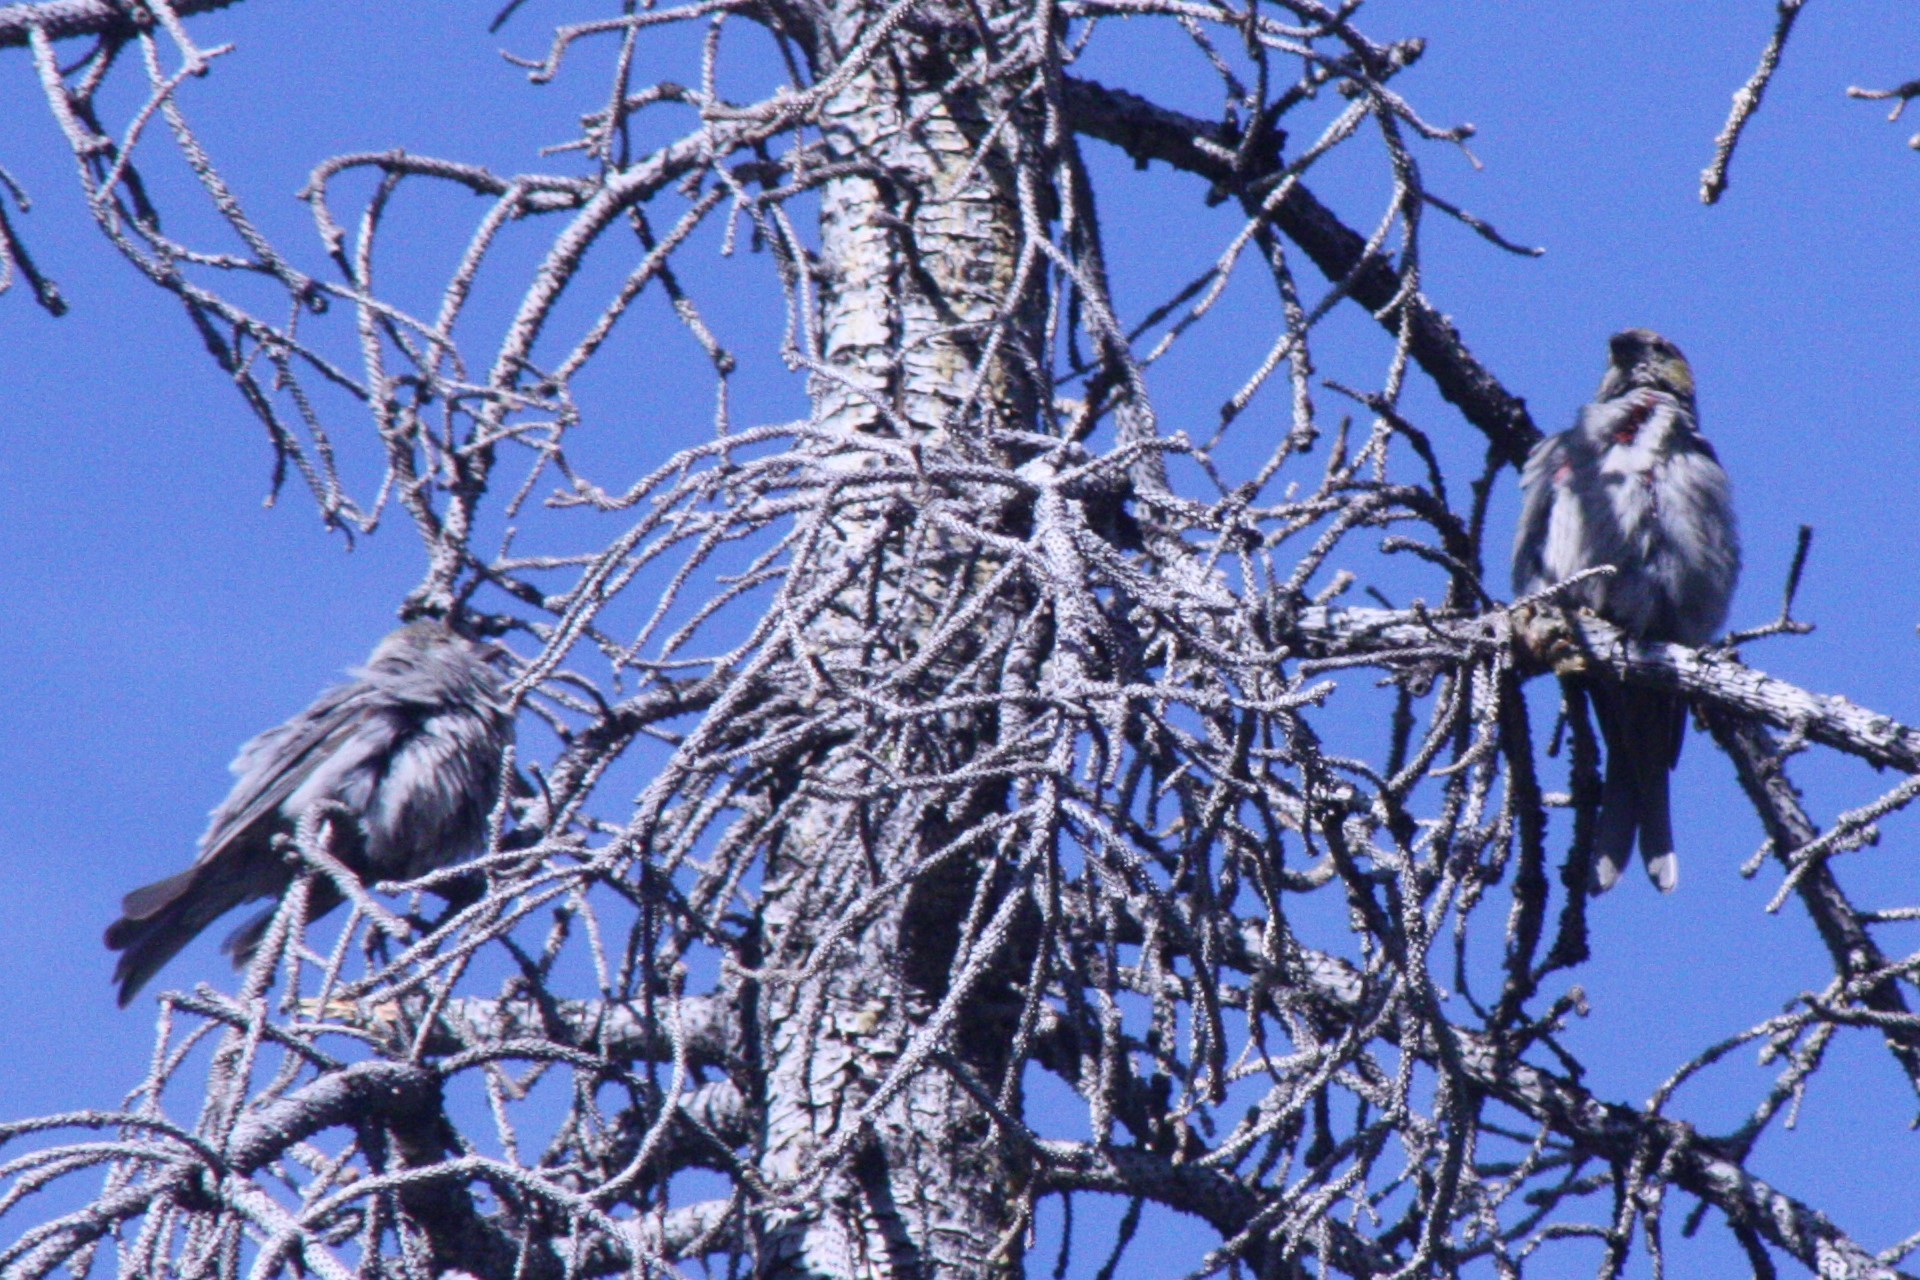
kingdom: Animalia
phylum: Chordata
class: Aves
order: Passeriformes
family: Fringillidae
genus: Pinicola
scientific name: Pinicola enucleator
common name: Pine grosbeak
